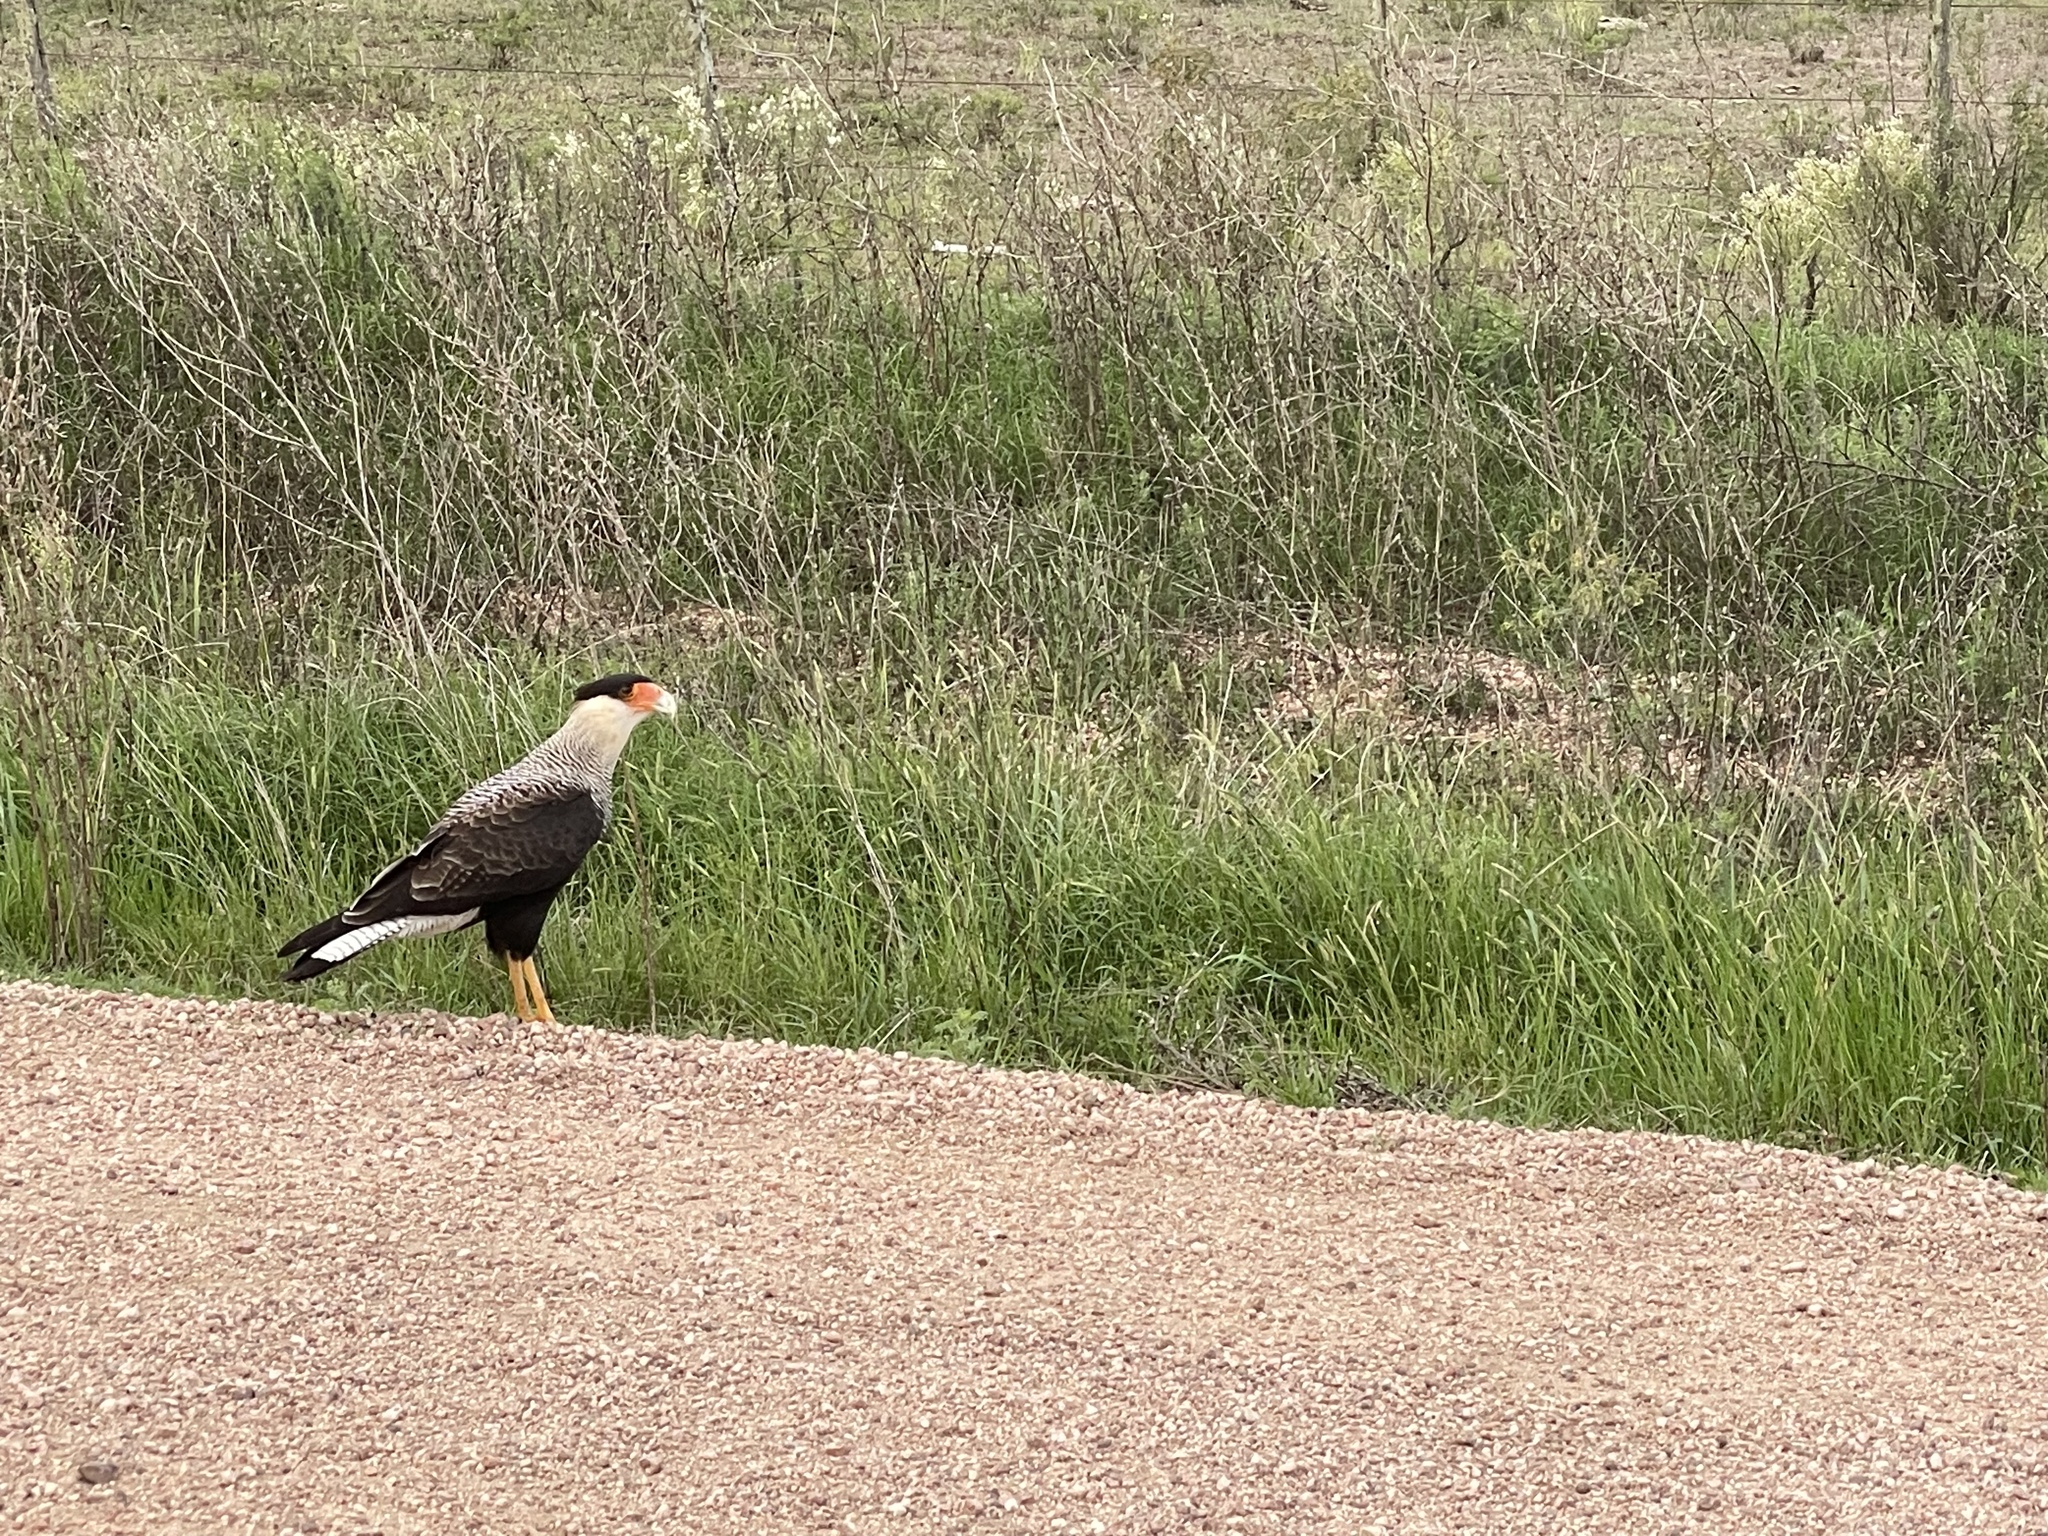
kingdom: Animalia
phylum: Chordata
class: Aves
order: Falconiformes
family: Falconidae
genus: Caracara
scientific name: Caracara plancus
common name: Southern caracara
